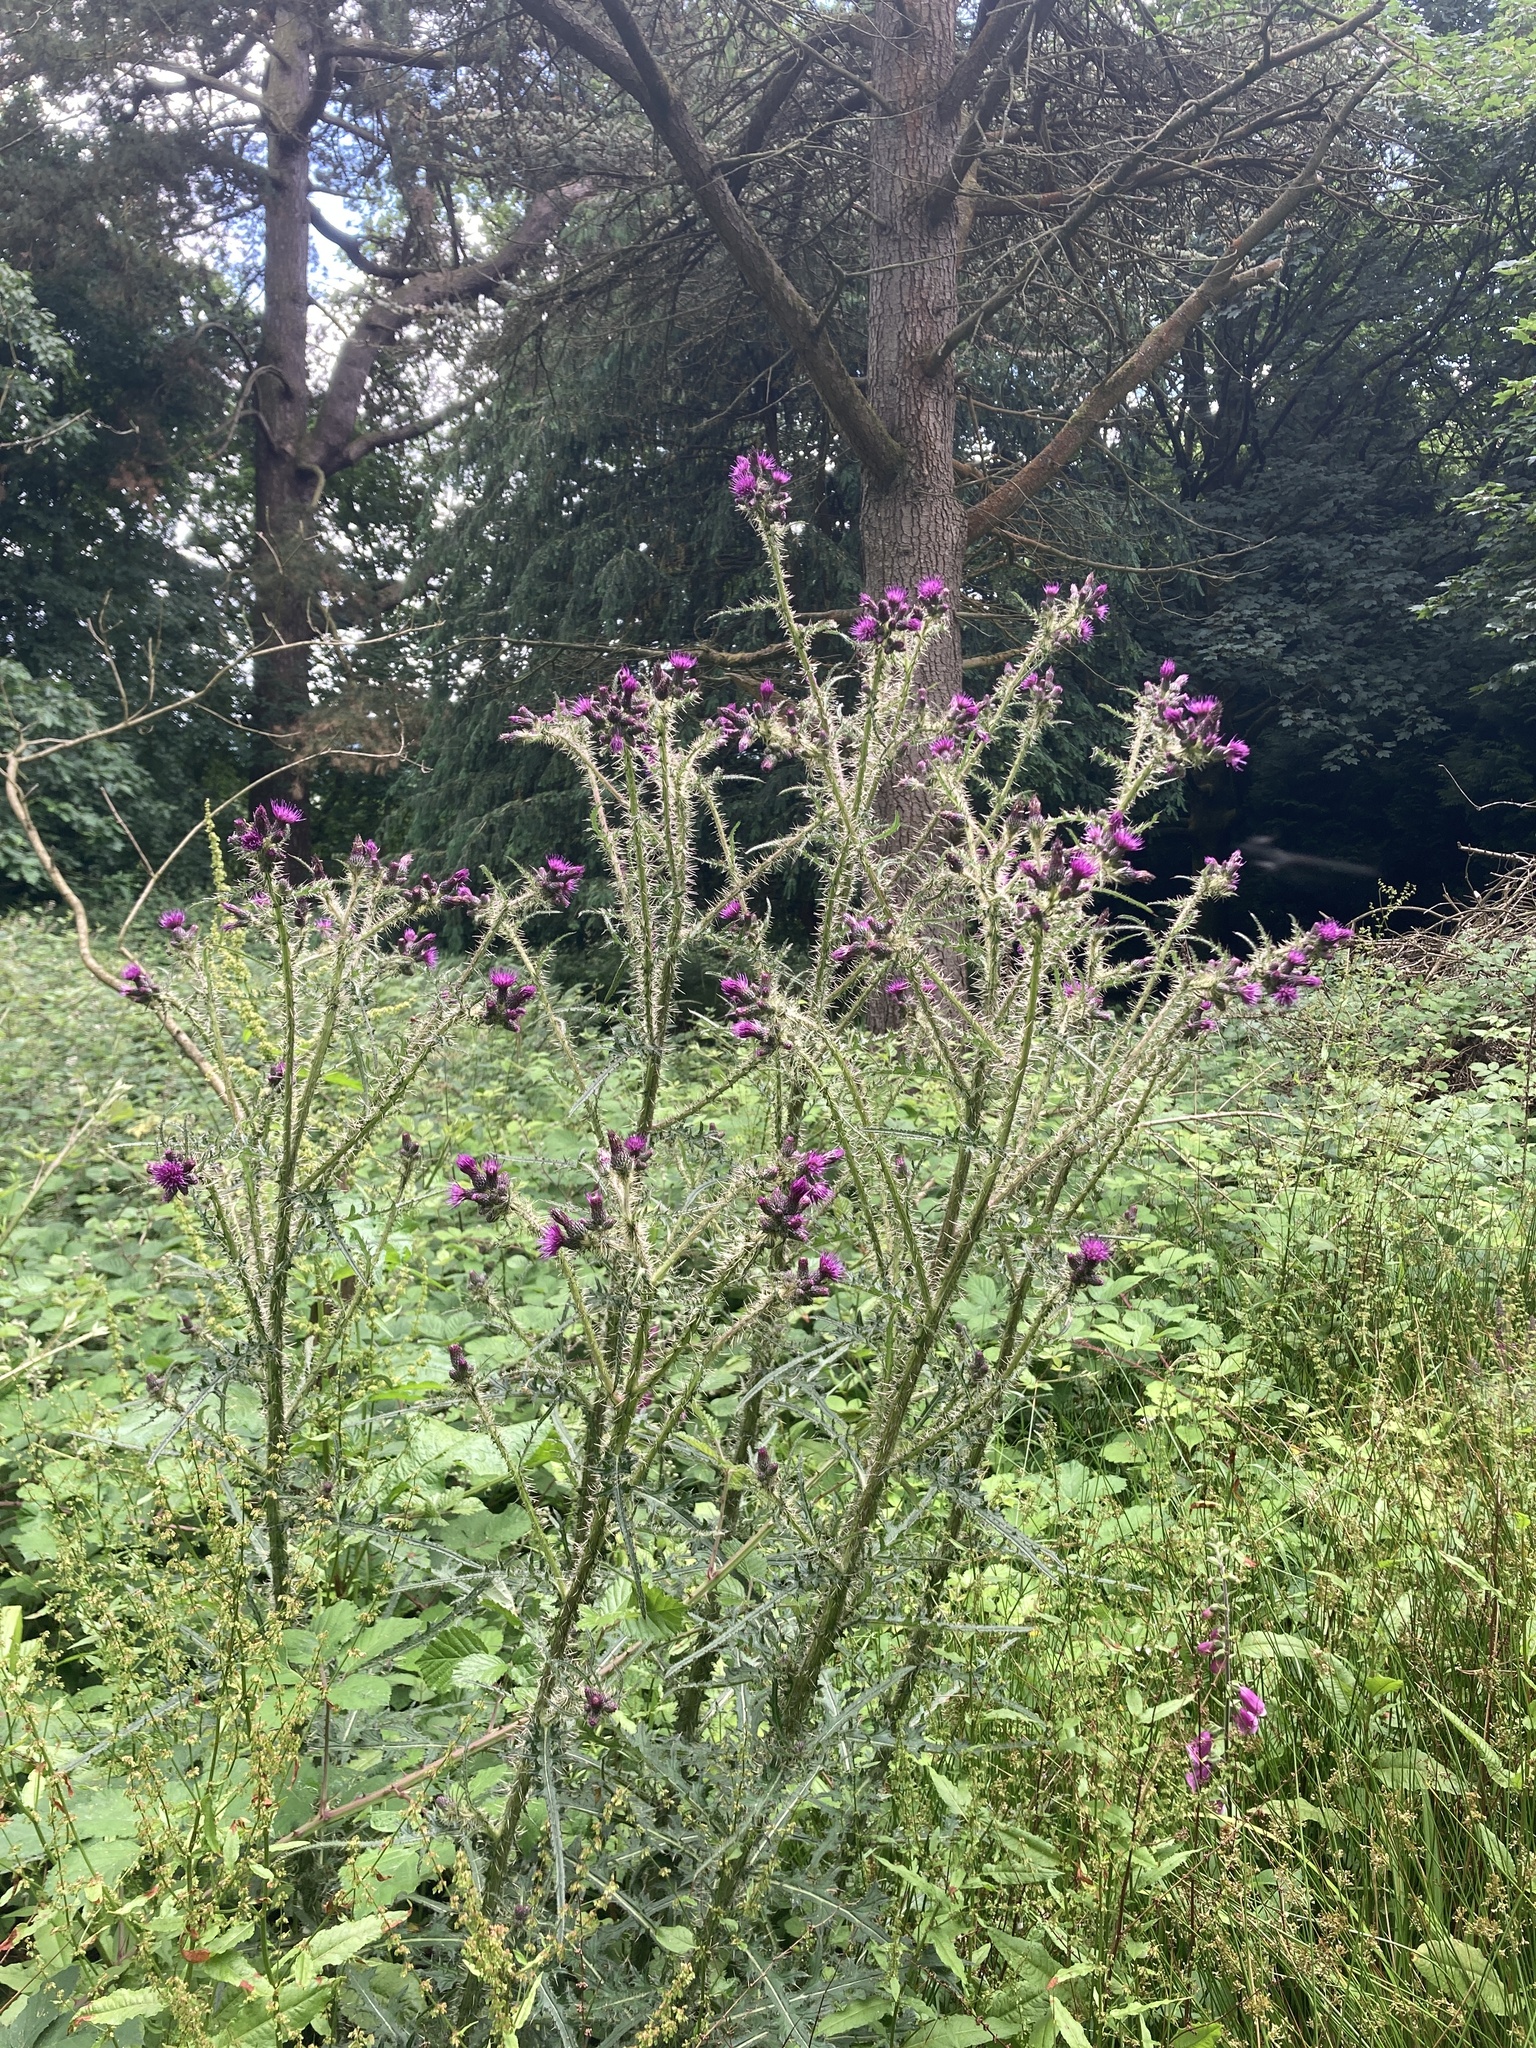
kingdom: Plantae
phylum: Tracheophyta
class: Magnoliopsida
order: Asterales
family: Asteraceae
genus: Cirsium
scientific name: Cirsium palustre
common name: Marsh thistle
